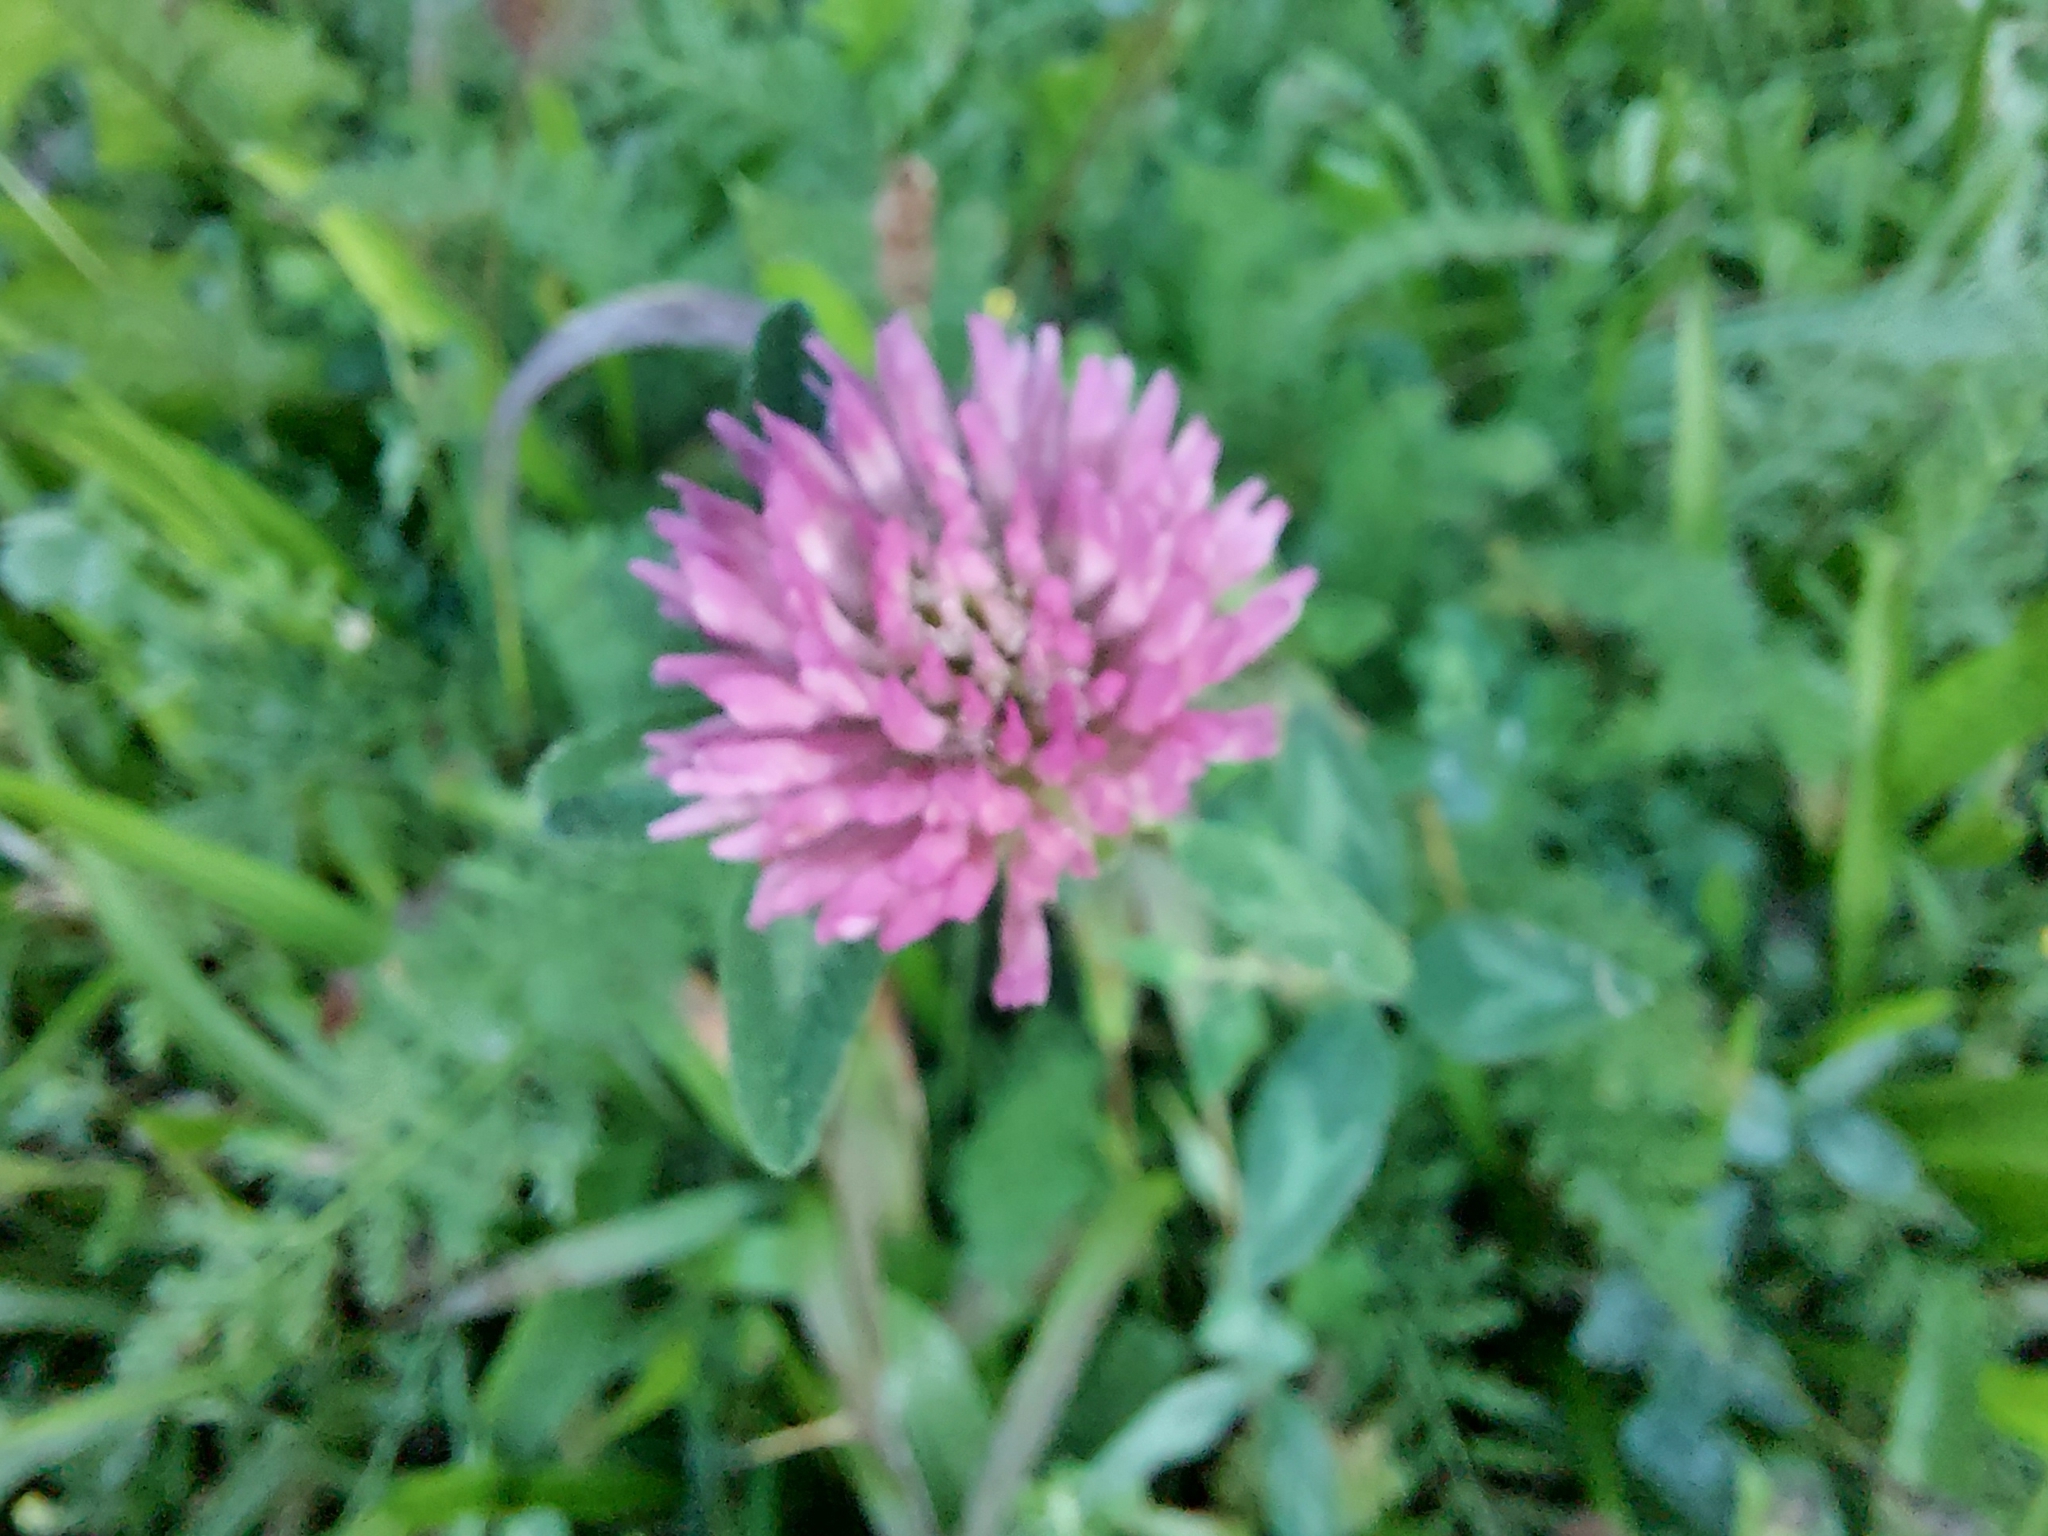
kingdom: Plantae
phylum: Tracheophyta
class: Magnoliopsida
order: Fabales
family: Fabaceae
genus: Trifolium
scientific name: Trifolium pratense
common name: Red clover
